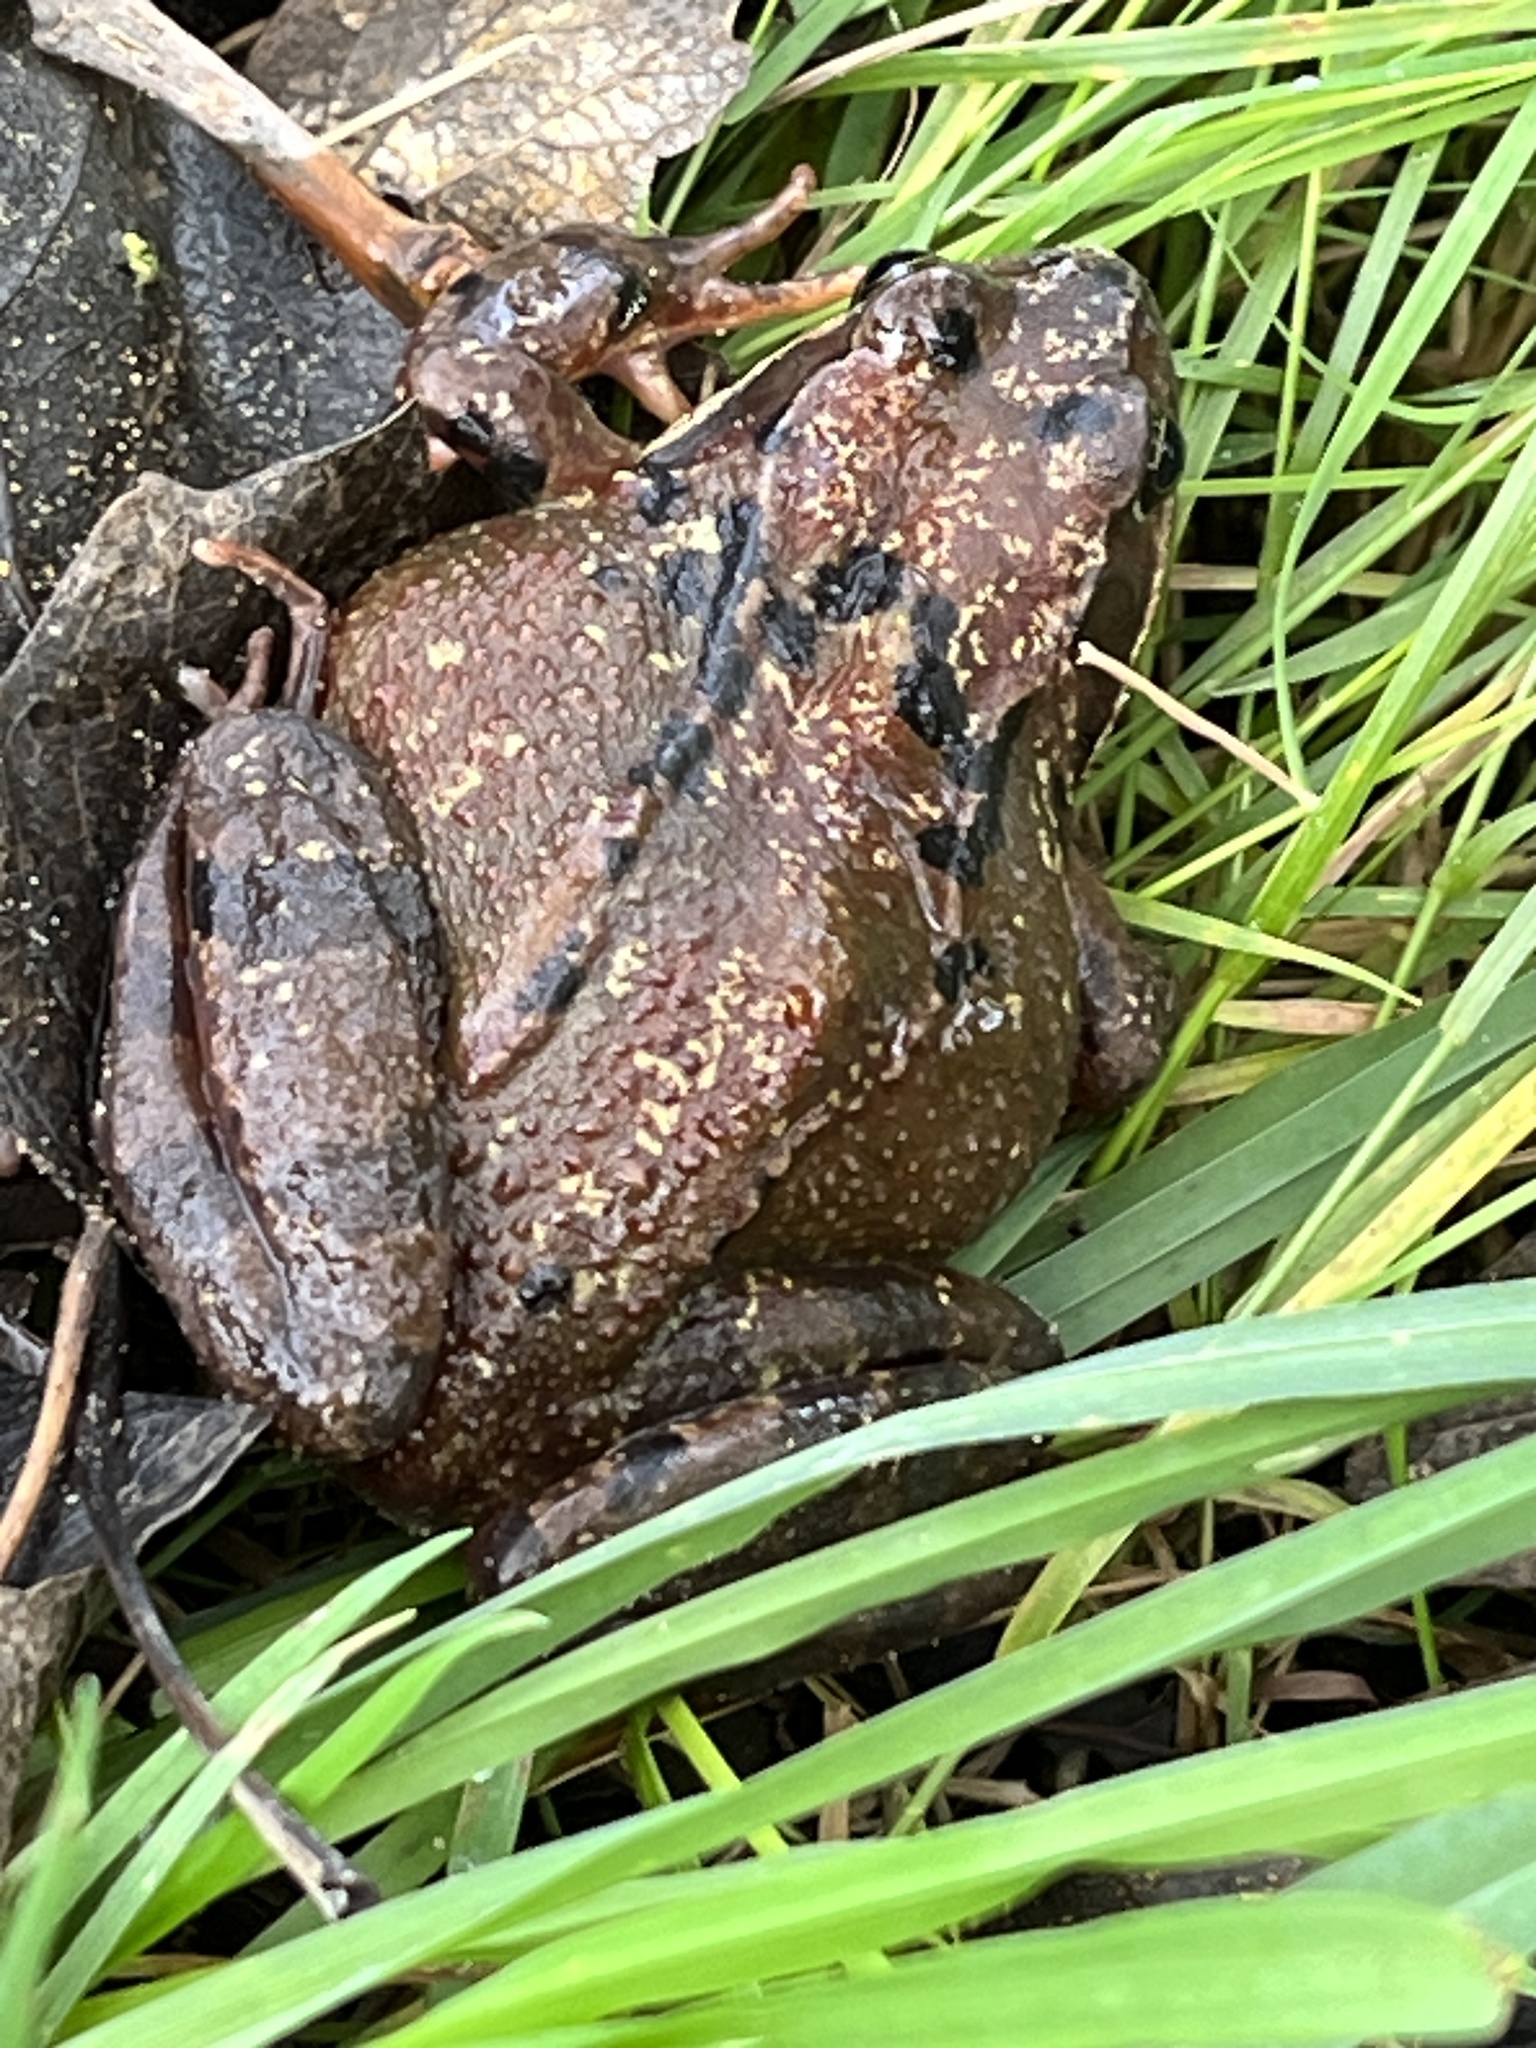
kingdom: Animalia
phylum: Chordata
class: Amphibia
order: Anura
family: Ranidae
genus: Rana
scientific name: Rana temporaria
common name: Common frog
